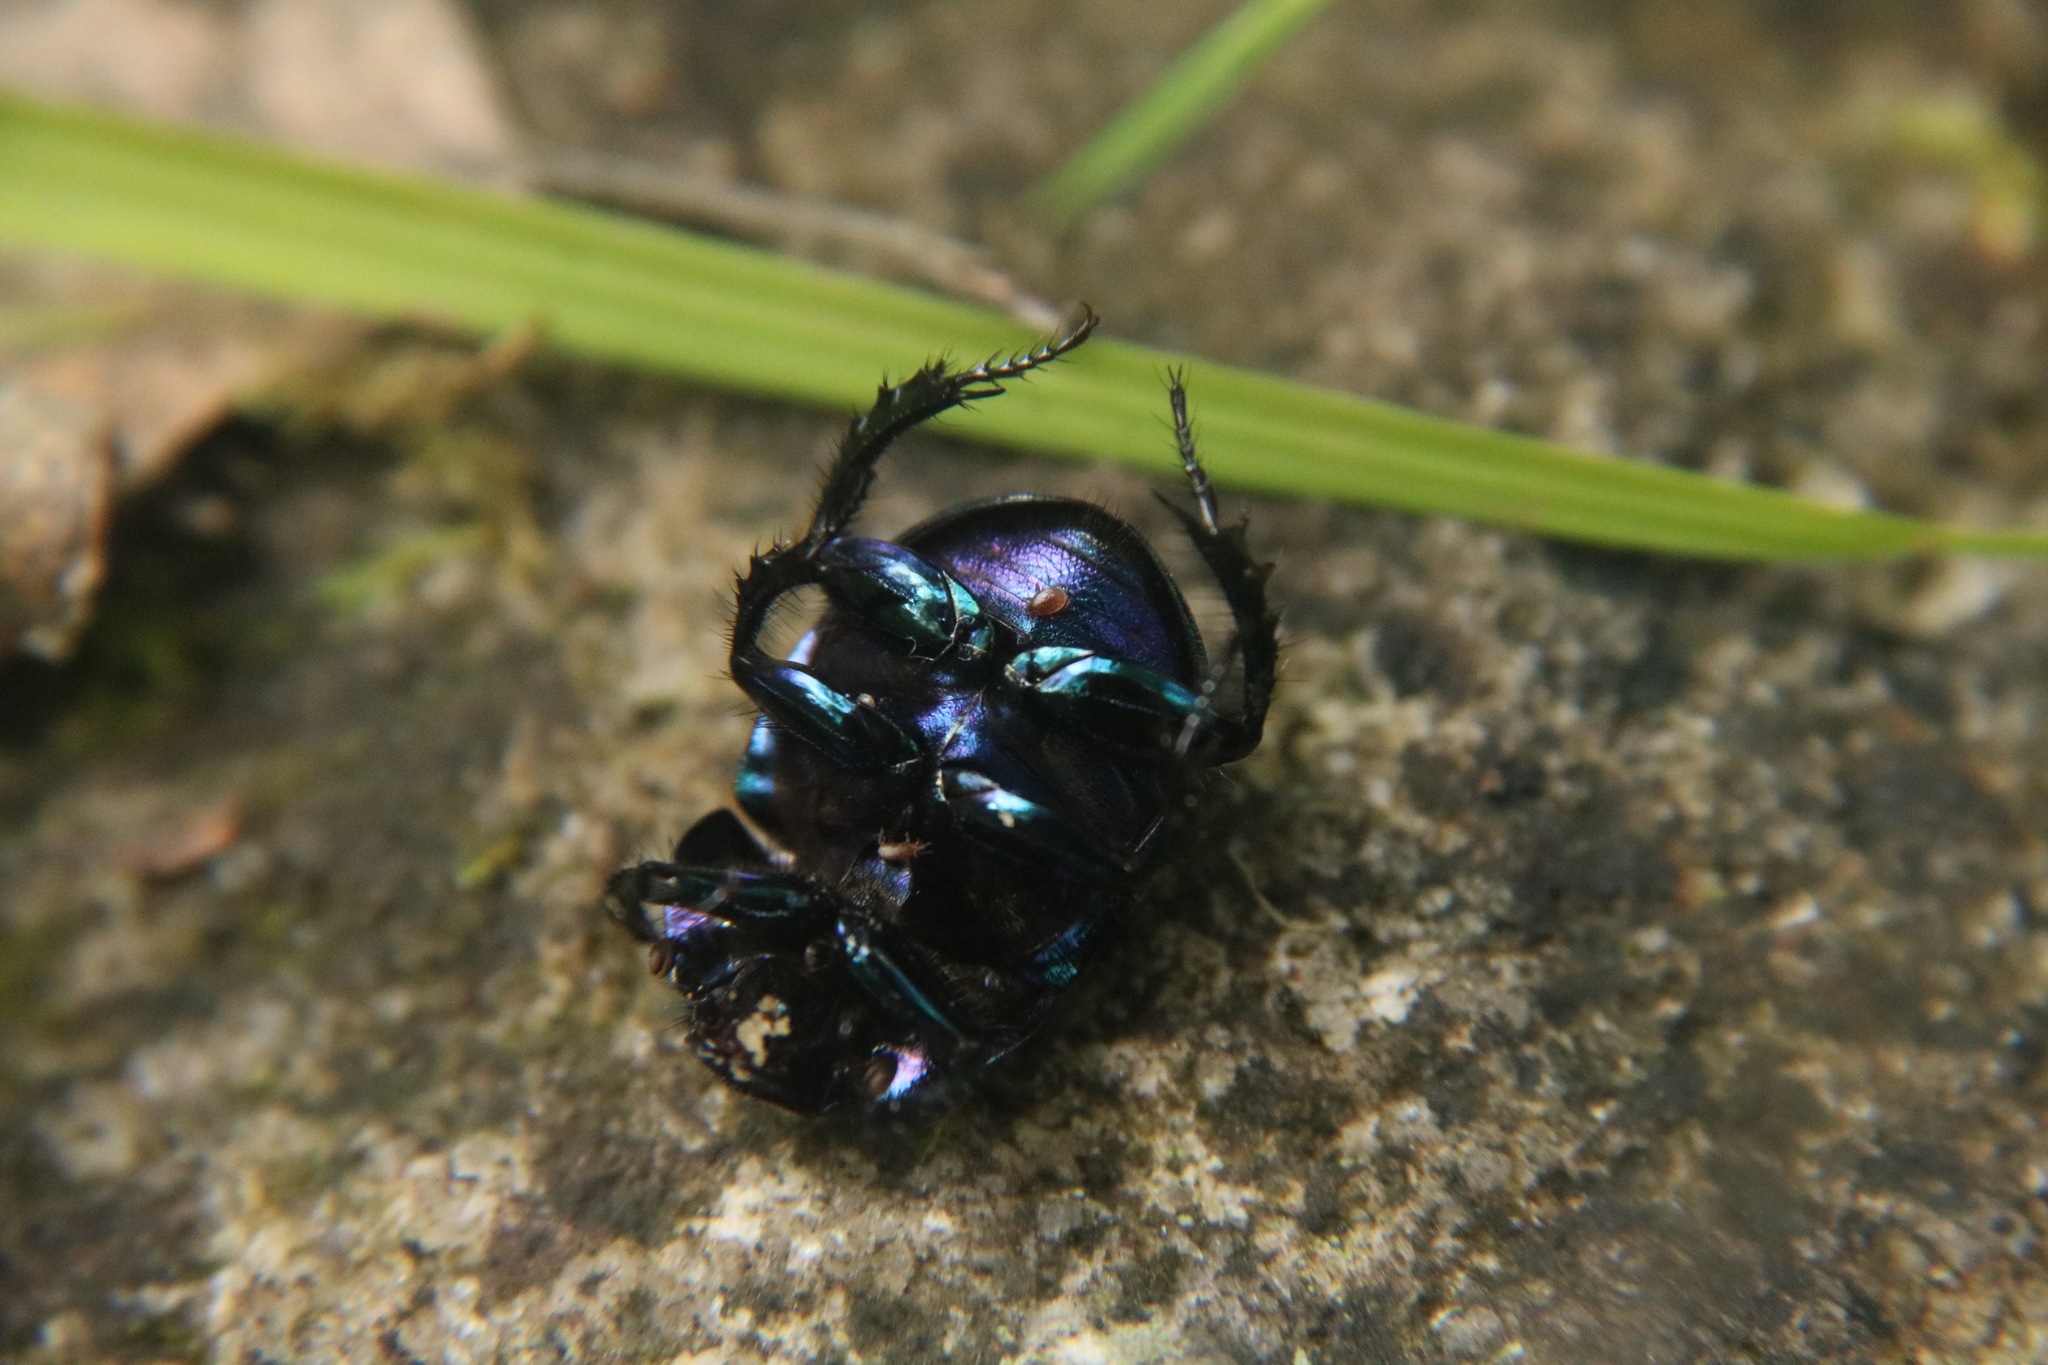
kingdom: Animalia
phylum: Arthropoda
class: Insecta
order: Coleoptera
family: Geotrupidae
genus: Anoplotrupes
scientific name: Anoplotrupes stercorosus
